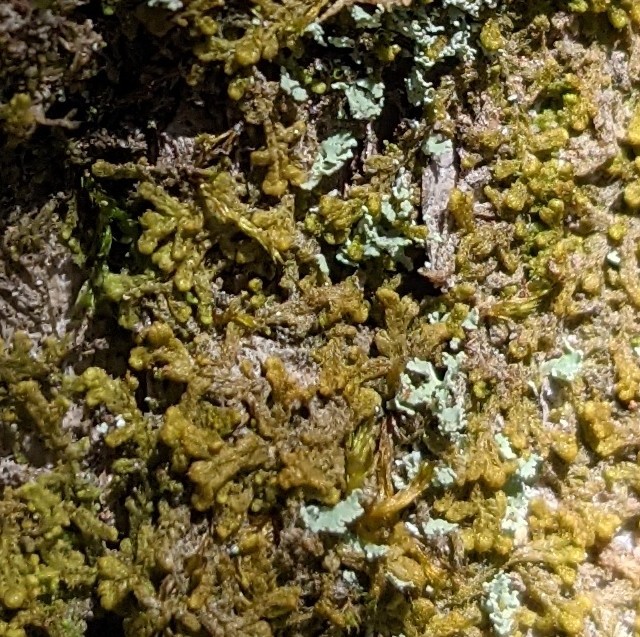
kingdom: Plantae
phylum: Marchantiophyta
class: Jungermanniopsida
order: Ptilidiales
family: Ptilidiaceae
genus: Ptilidium
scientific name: Ptilidium pulcherrimum
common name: Tree fringewort
